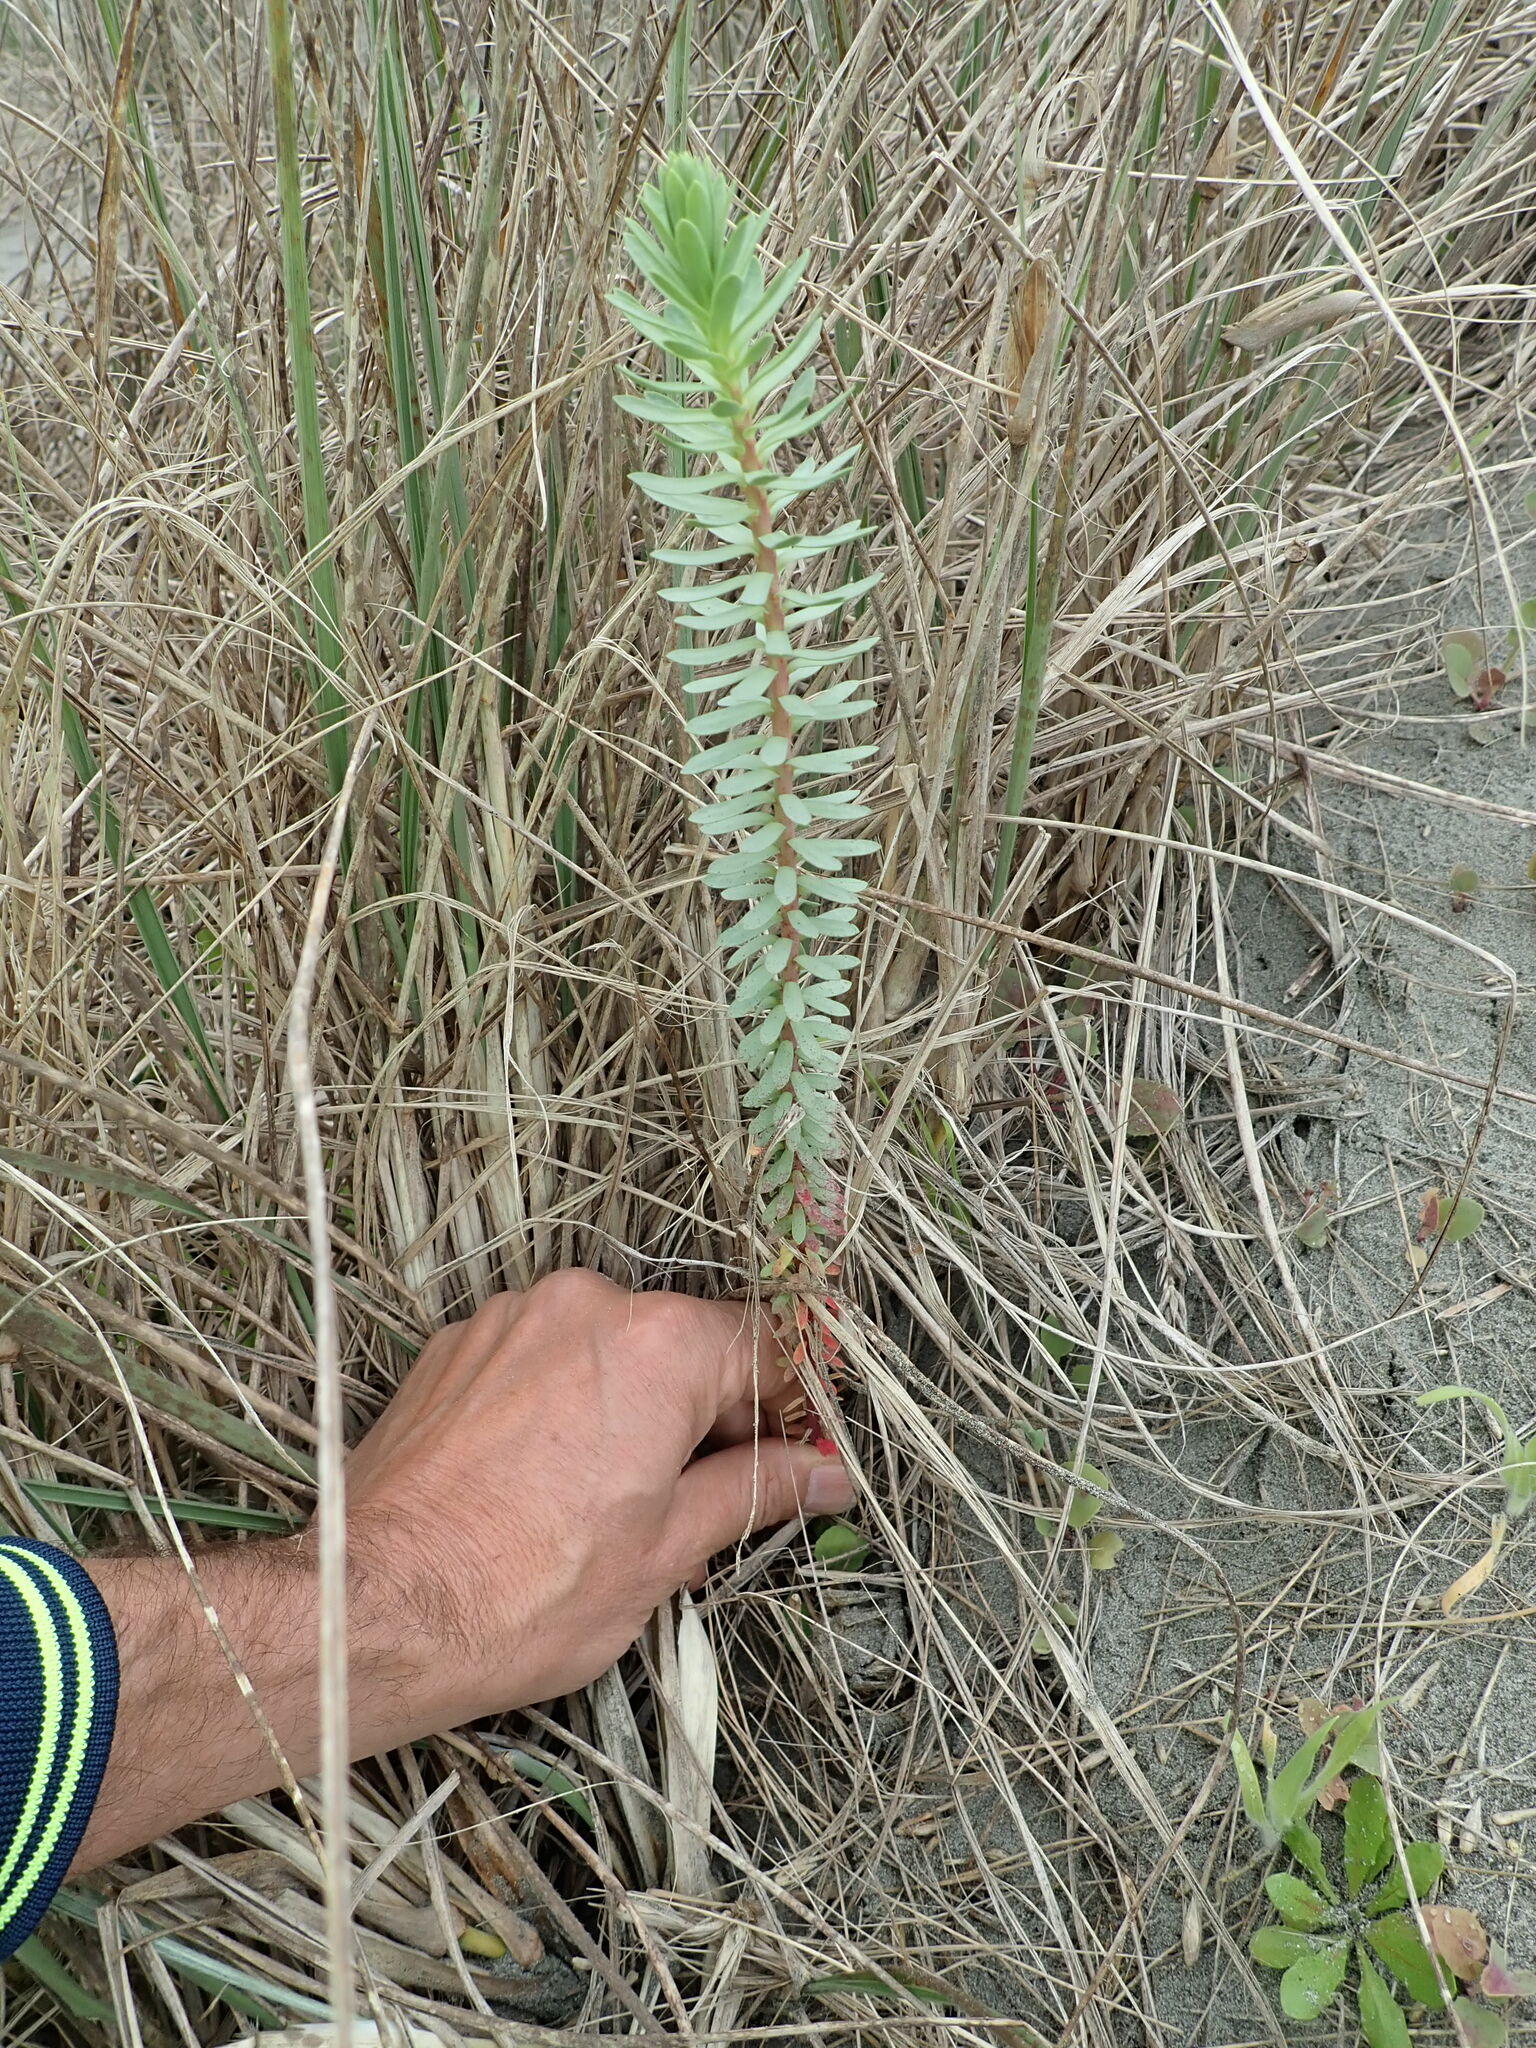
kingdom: Plantae
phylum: Tracheophyta
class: Magnoliopsida
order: Malpighiales
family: Euphorbiaceae
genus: Euphorbia
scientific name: Euphorbia paralias
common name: Sea spurge
